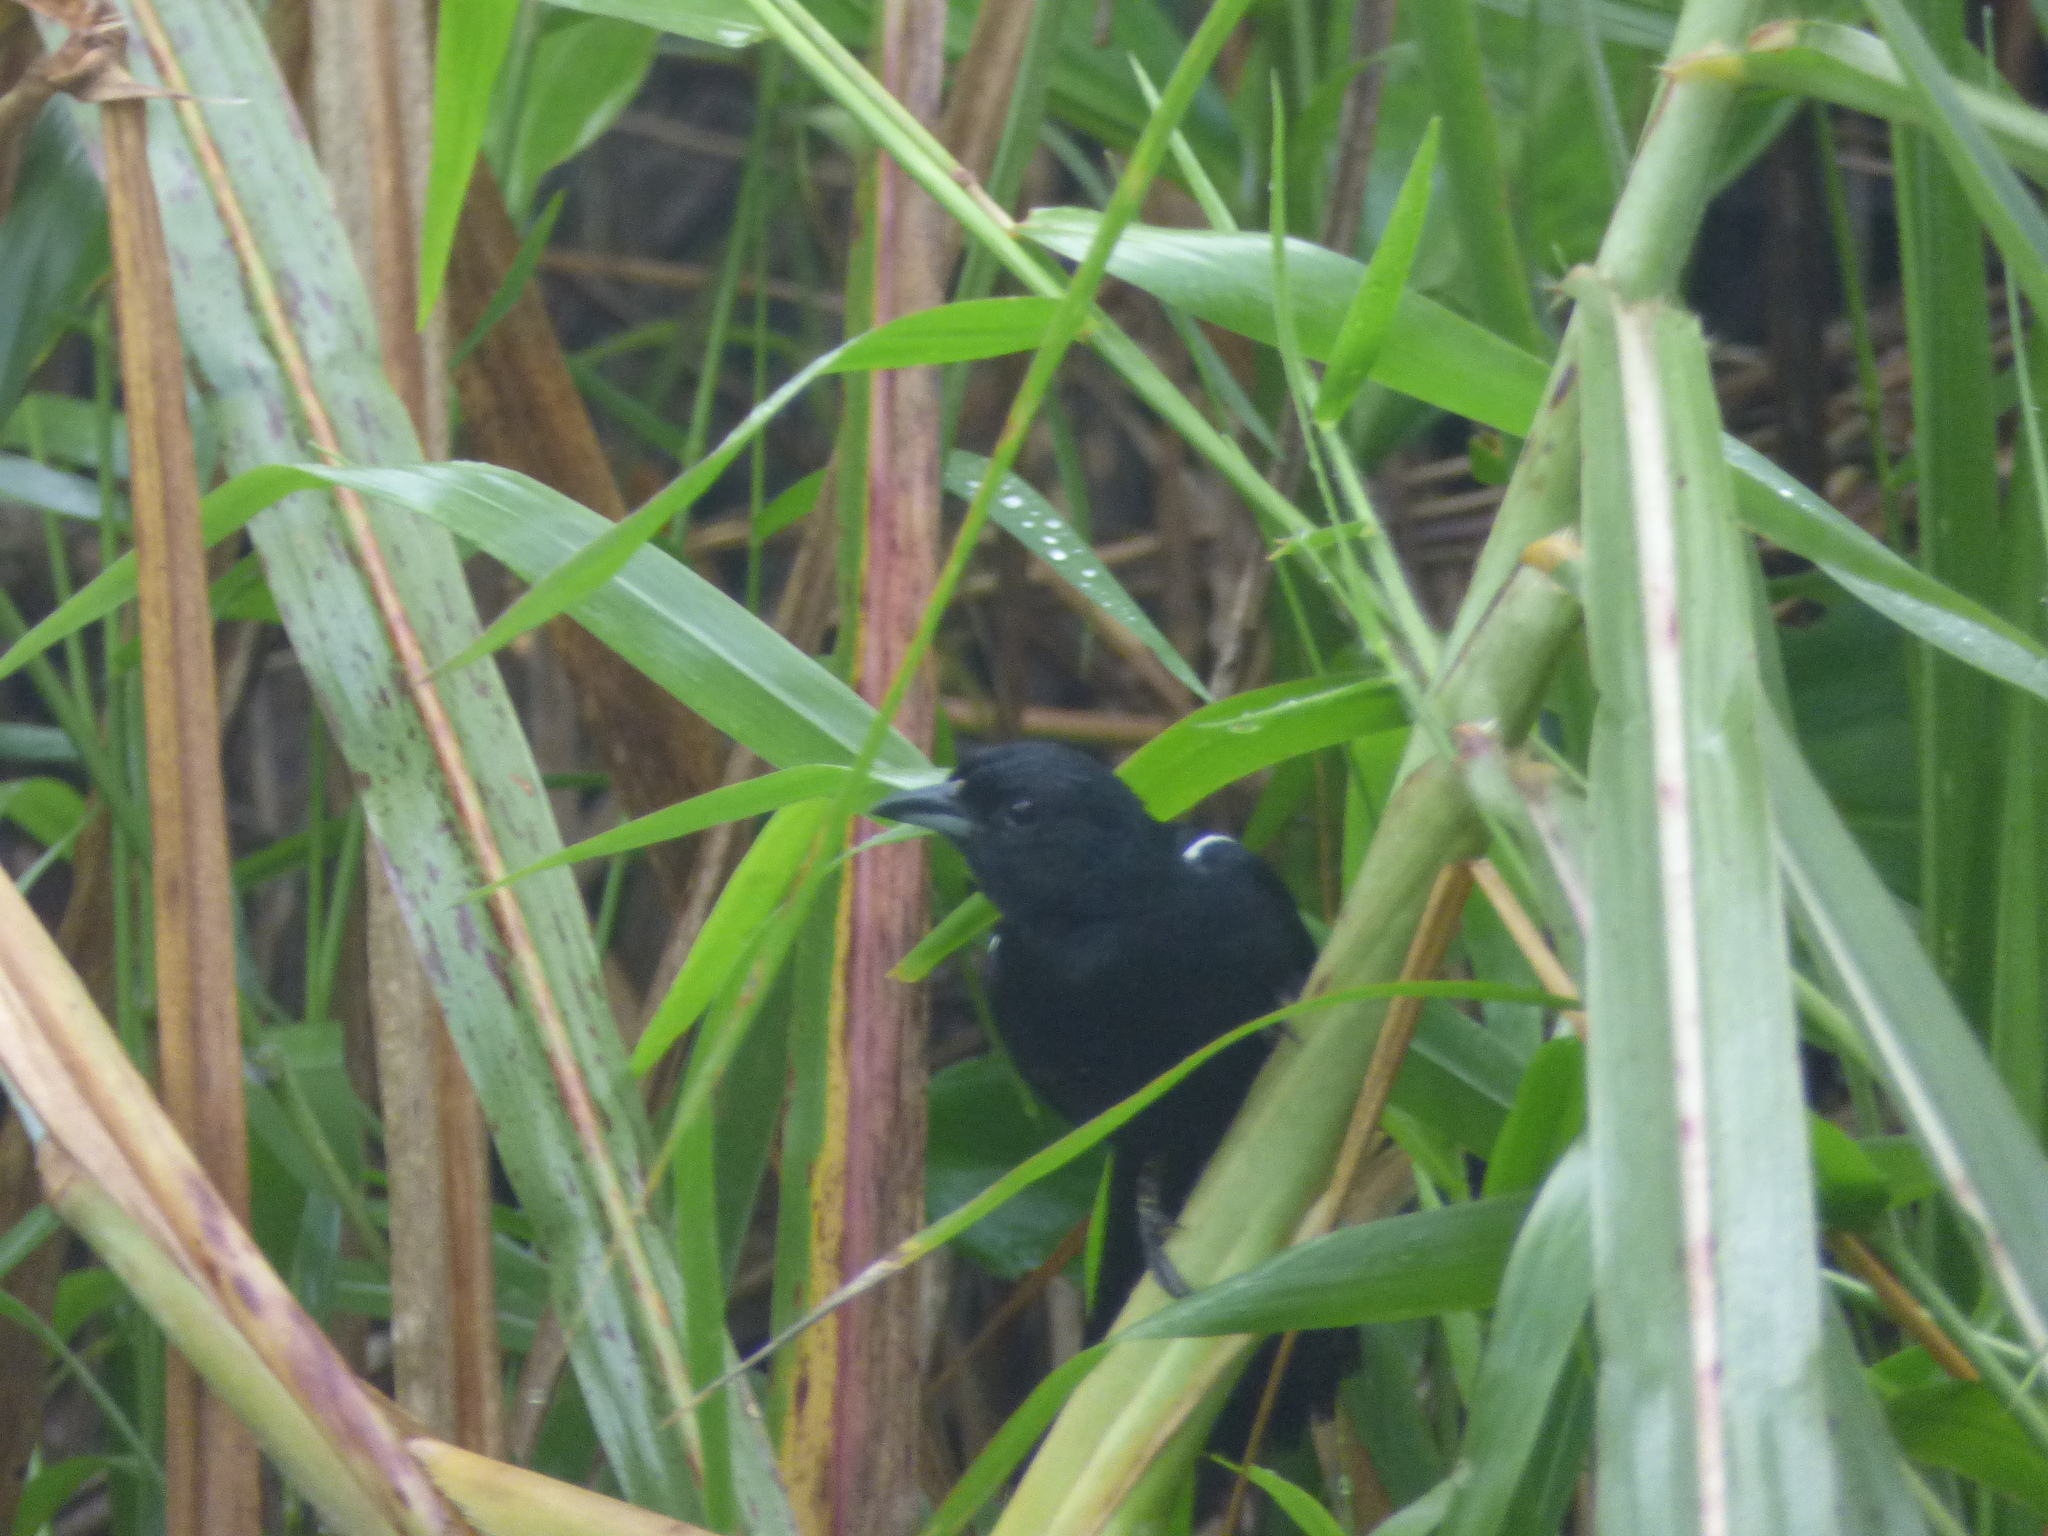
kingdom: Animalia
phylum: Chordata
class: Aves
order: Passeriformes
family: Thraupidae
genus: Tachyphonus
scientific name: Tachyphonus rufus
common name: White-lined tanager
